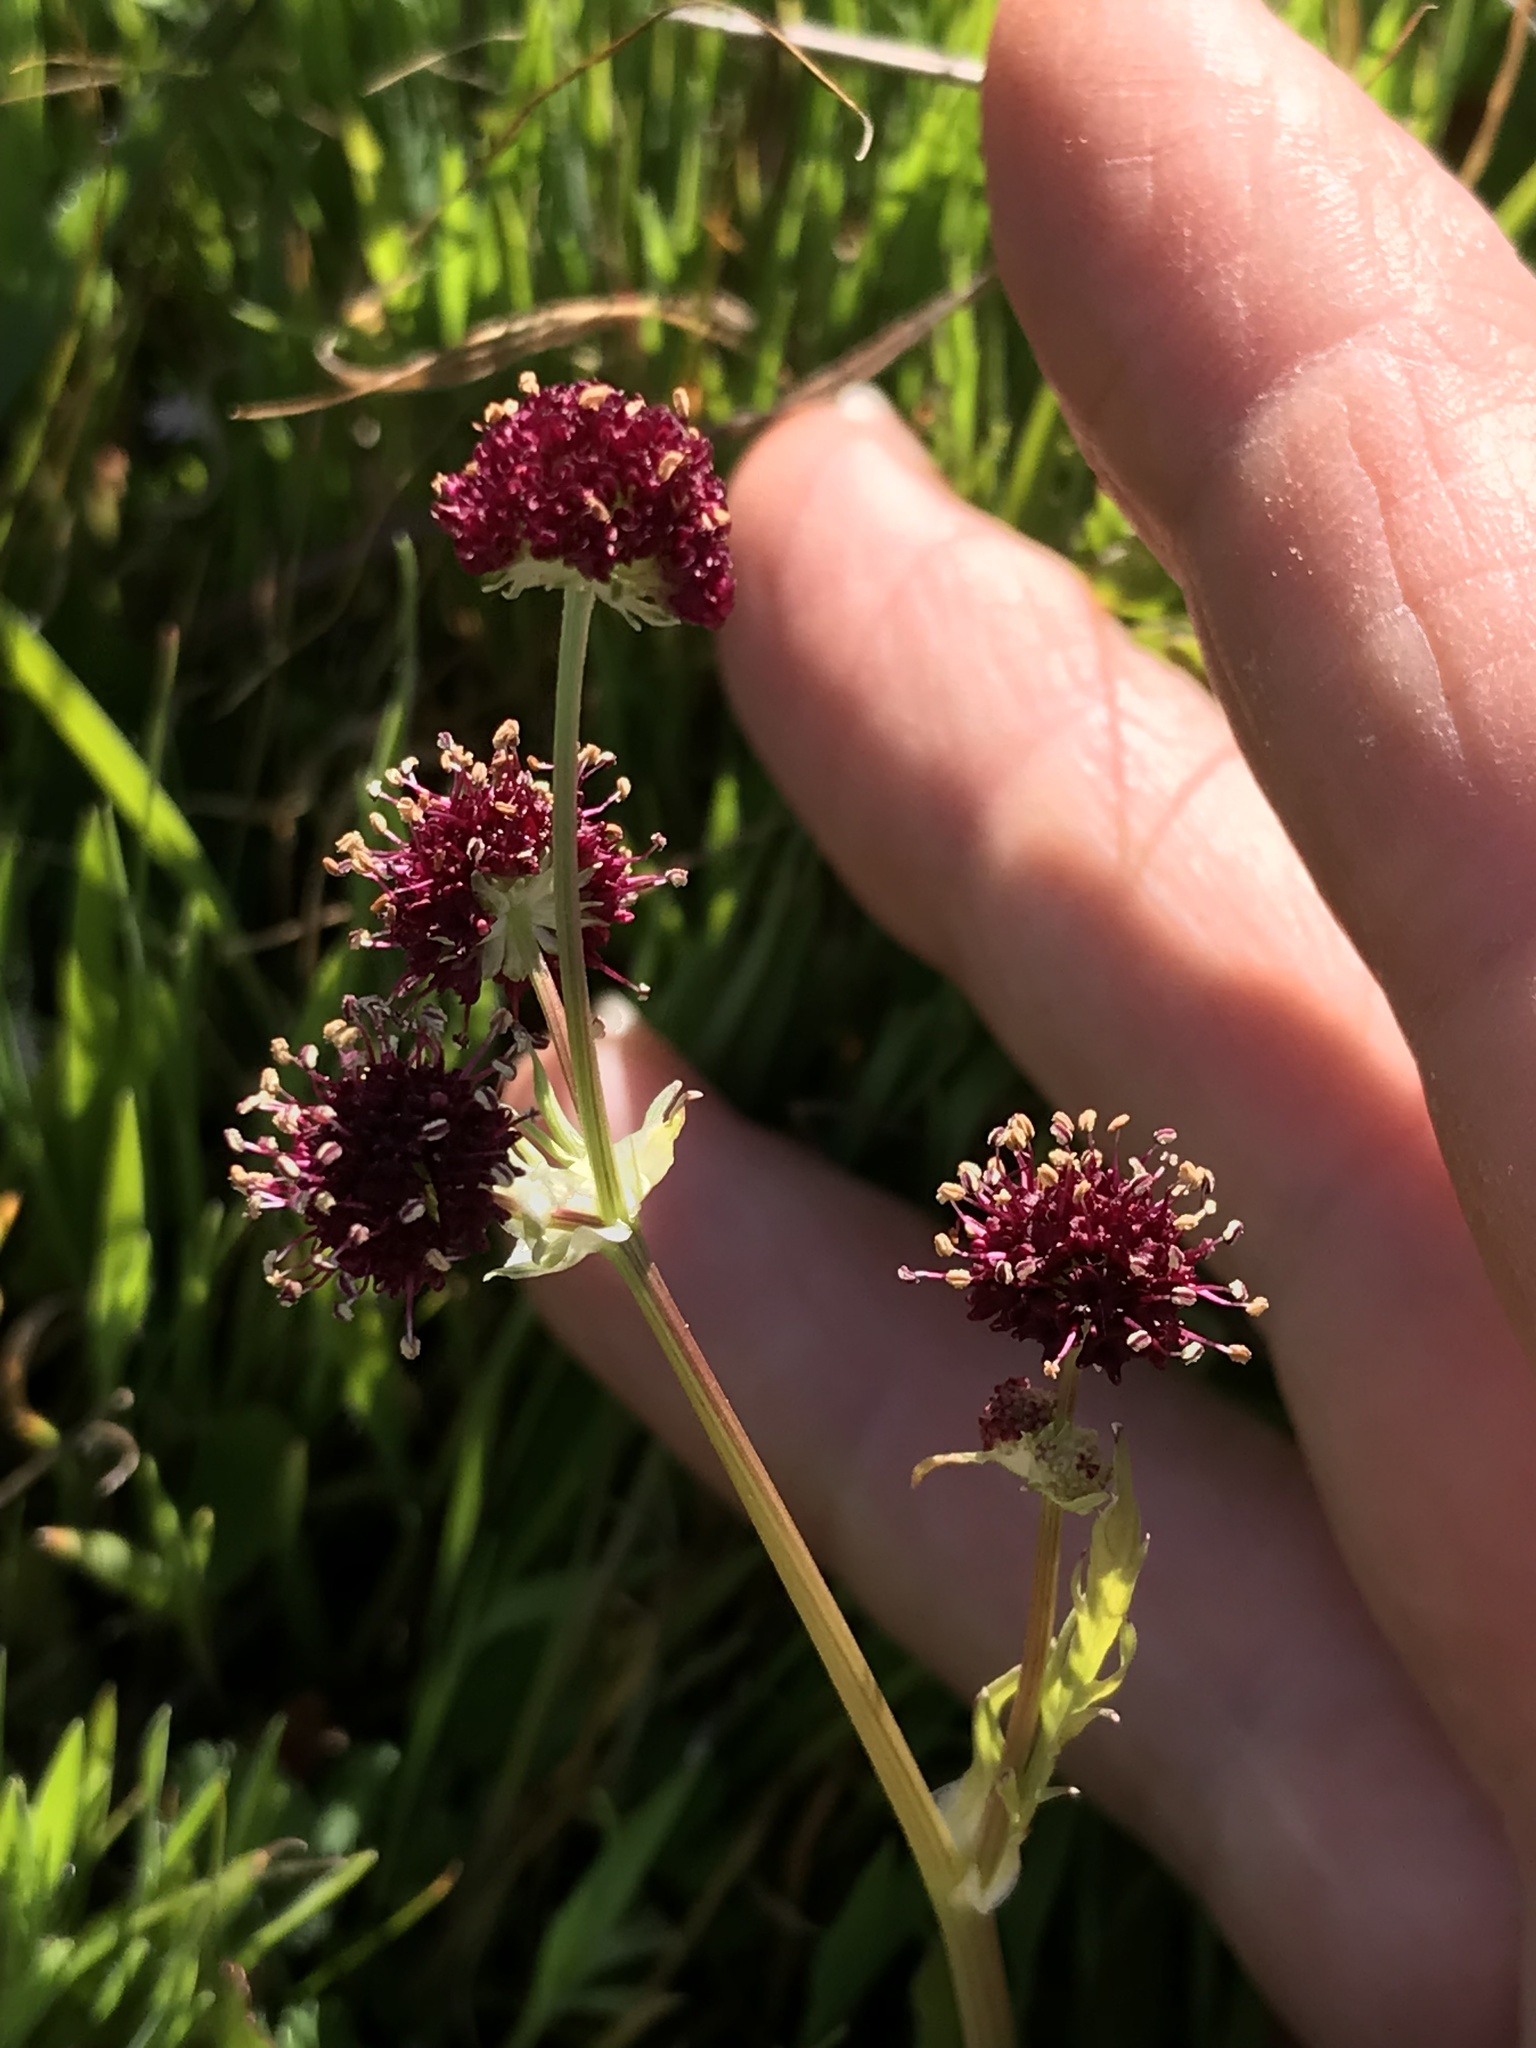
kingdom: Plantae
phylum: Tracheophyta
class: Magnoliopsida
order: Apiales
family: Apiaceae
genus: Sanicula
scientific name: Sanicula bipinnatifida
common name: Shoe-buttons
